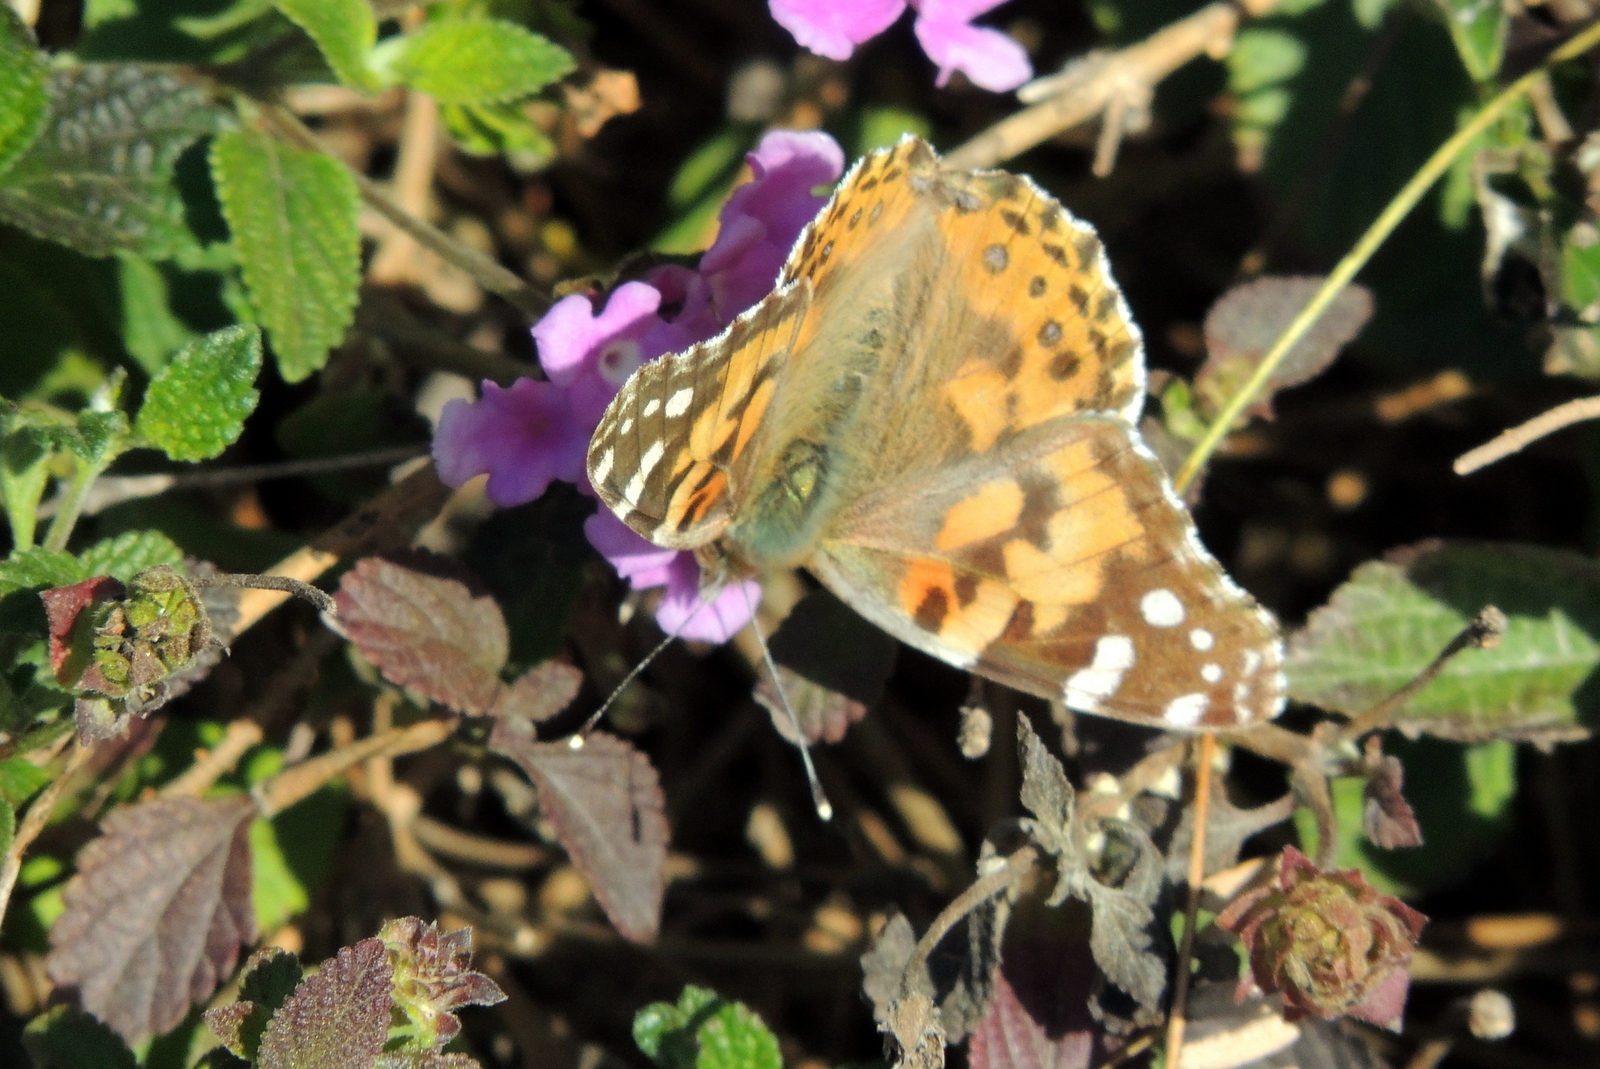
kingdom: Animalia
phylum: Arthropoda
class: Insecta
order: Lepidoptera
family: Nymphalidae
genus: Vanessa
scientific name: Vanessa cardui
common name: Painted lady
